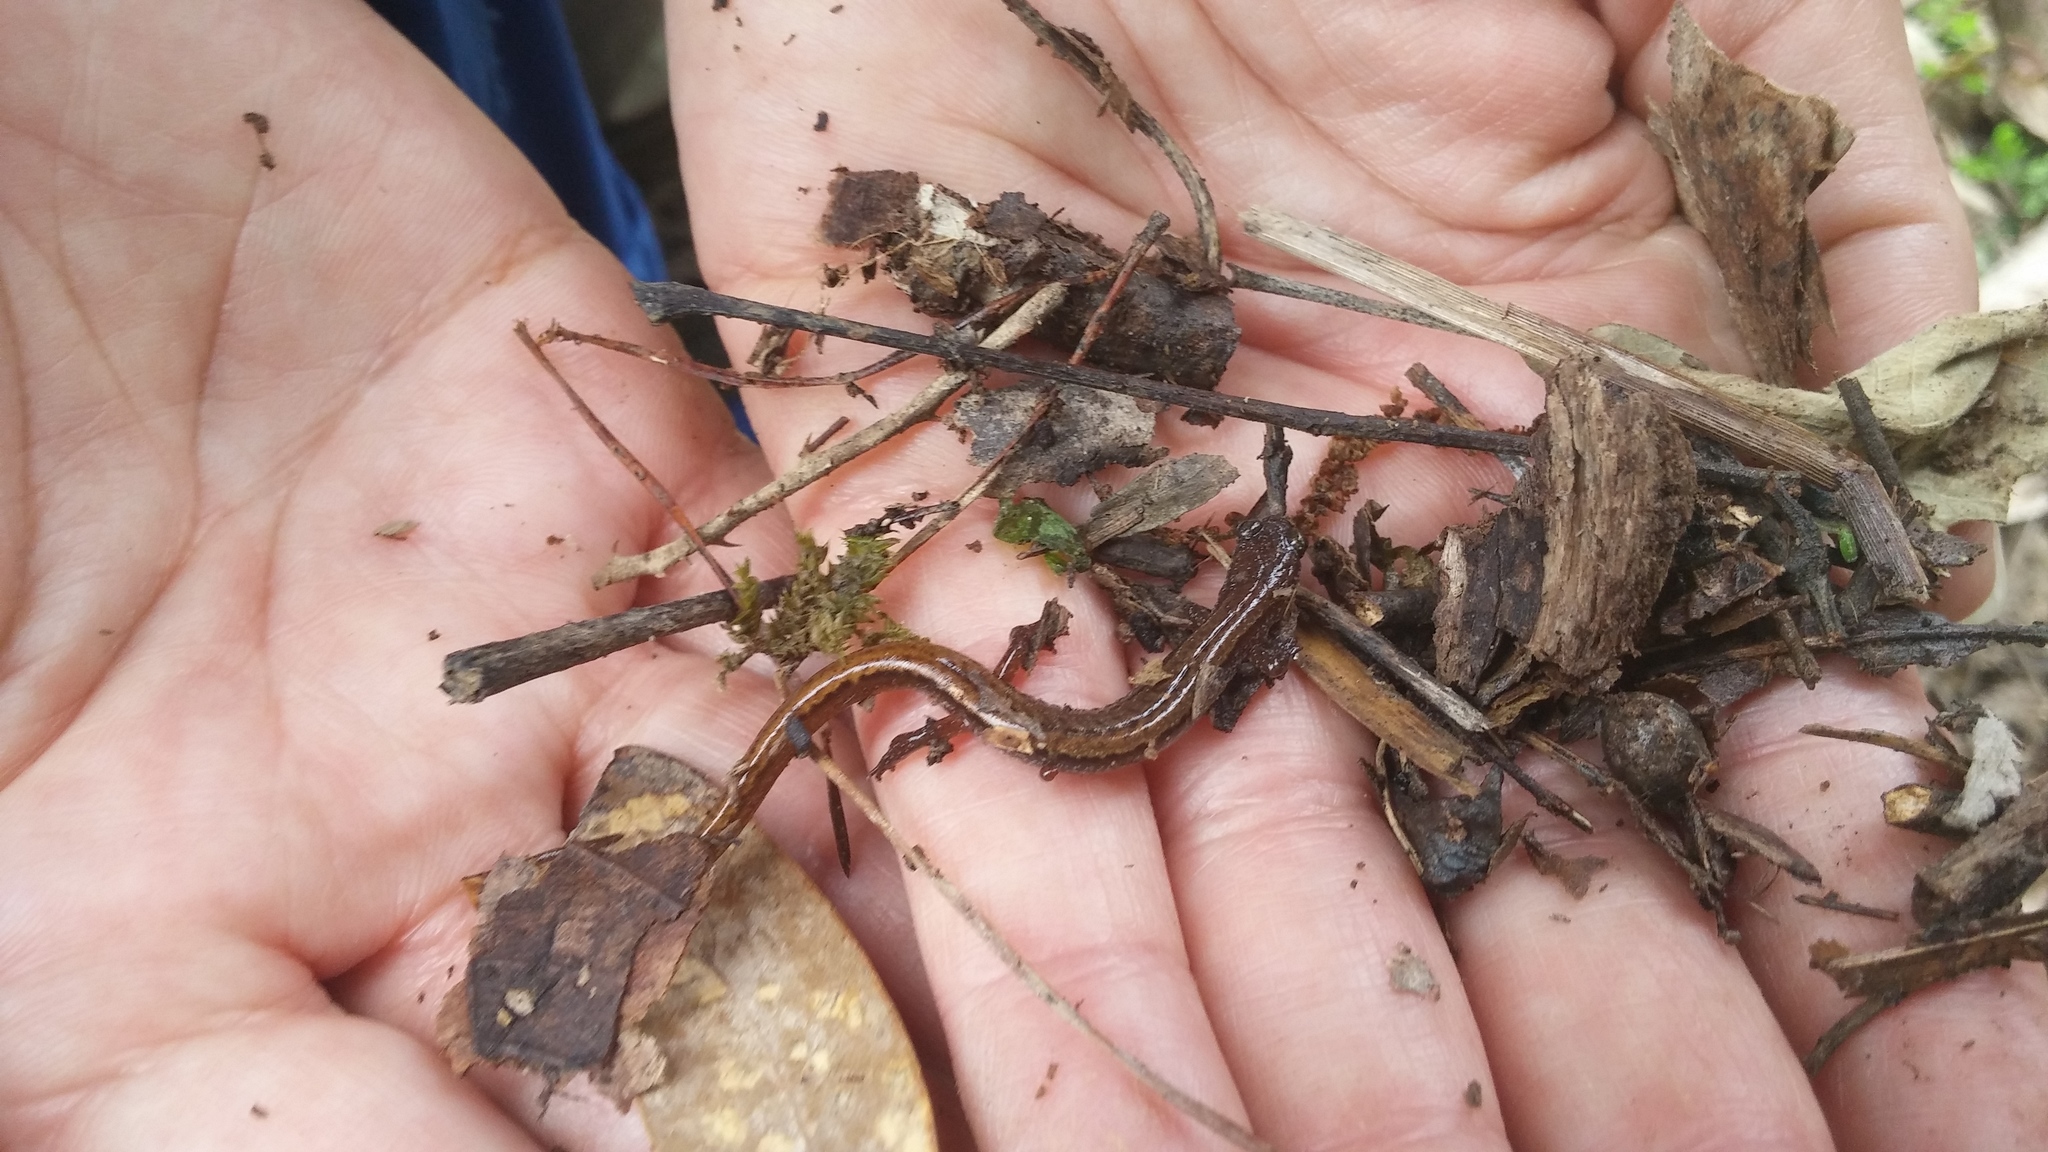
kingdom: Animalia
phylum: Chordata
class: Amphibia
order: Caudata
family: Plethodontidae
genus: Eurycea
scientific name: Eurycea paludicola
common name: Western dwarf salamander
